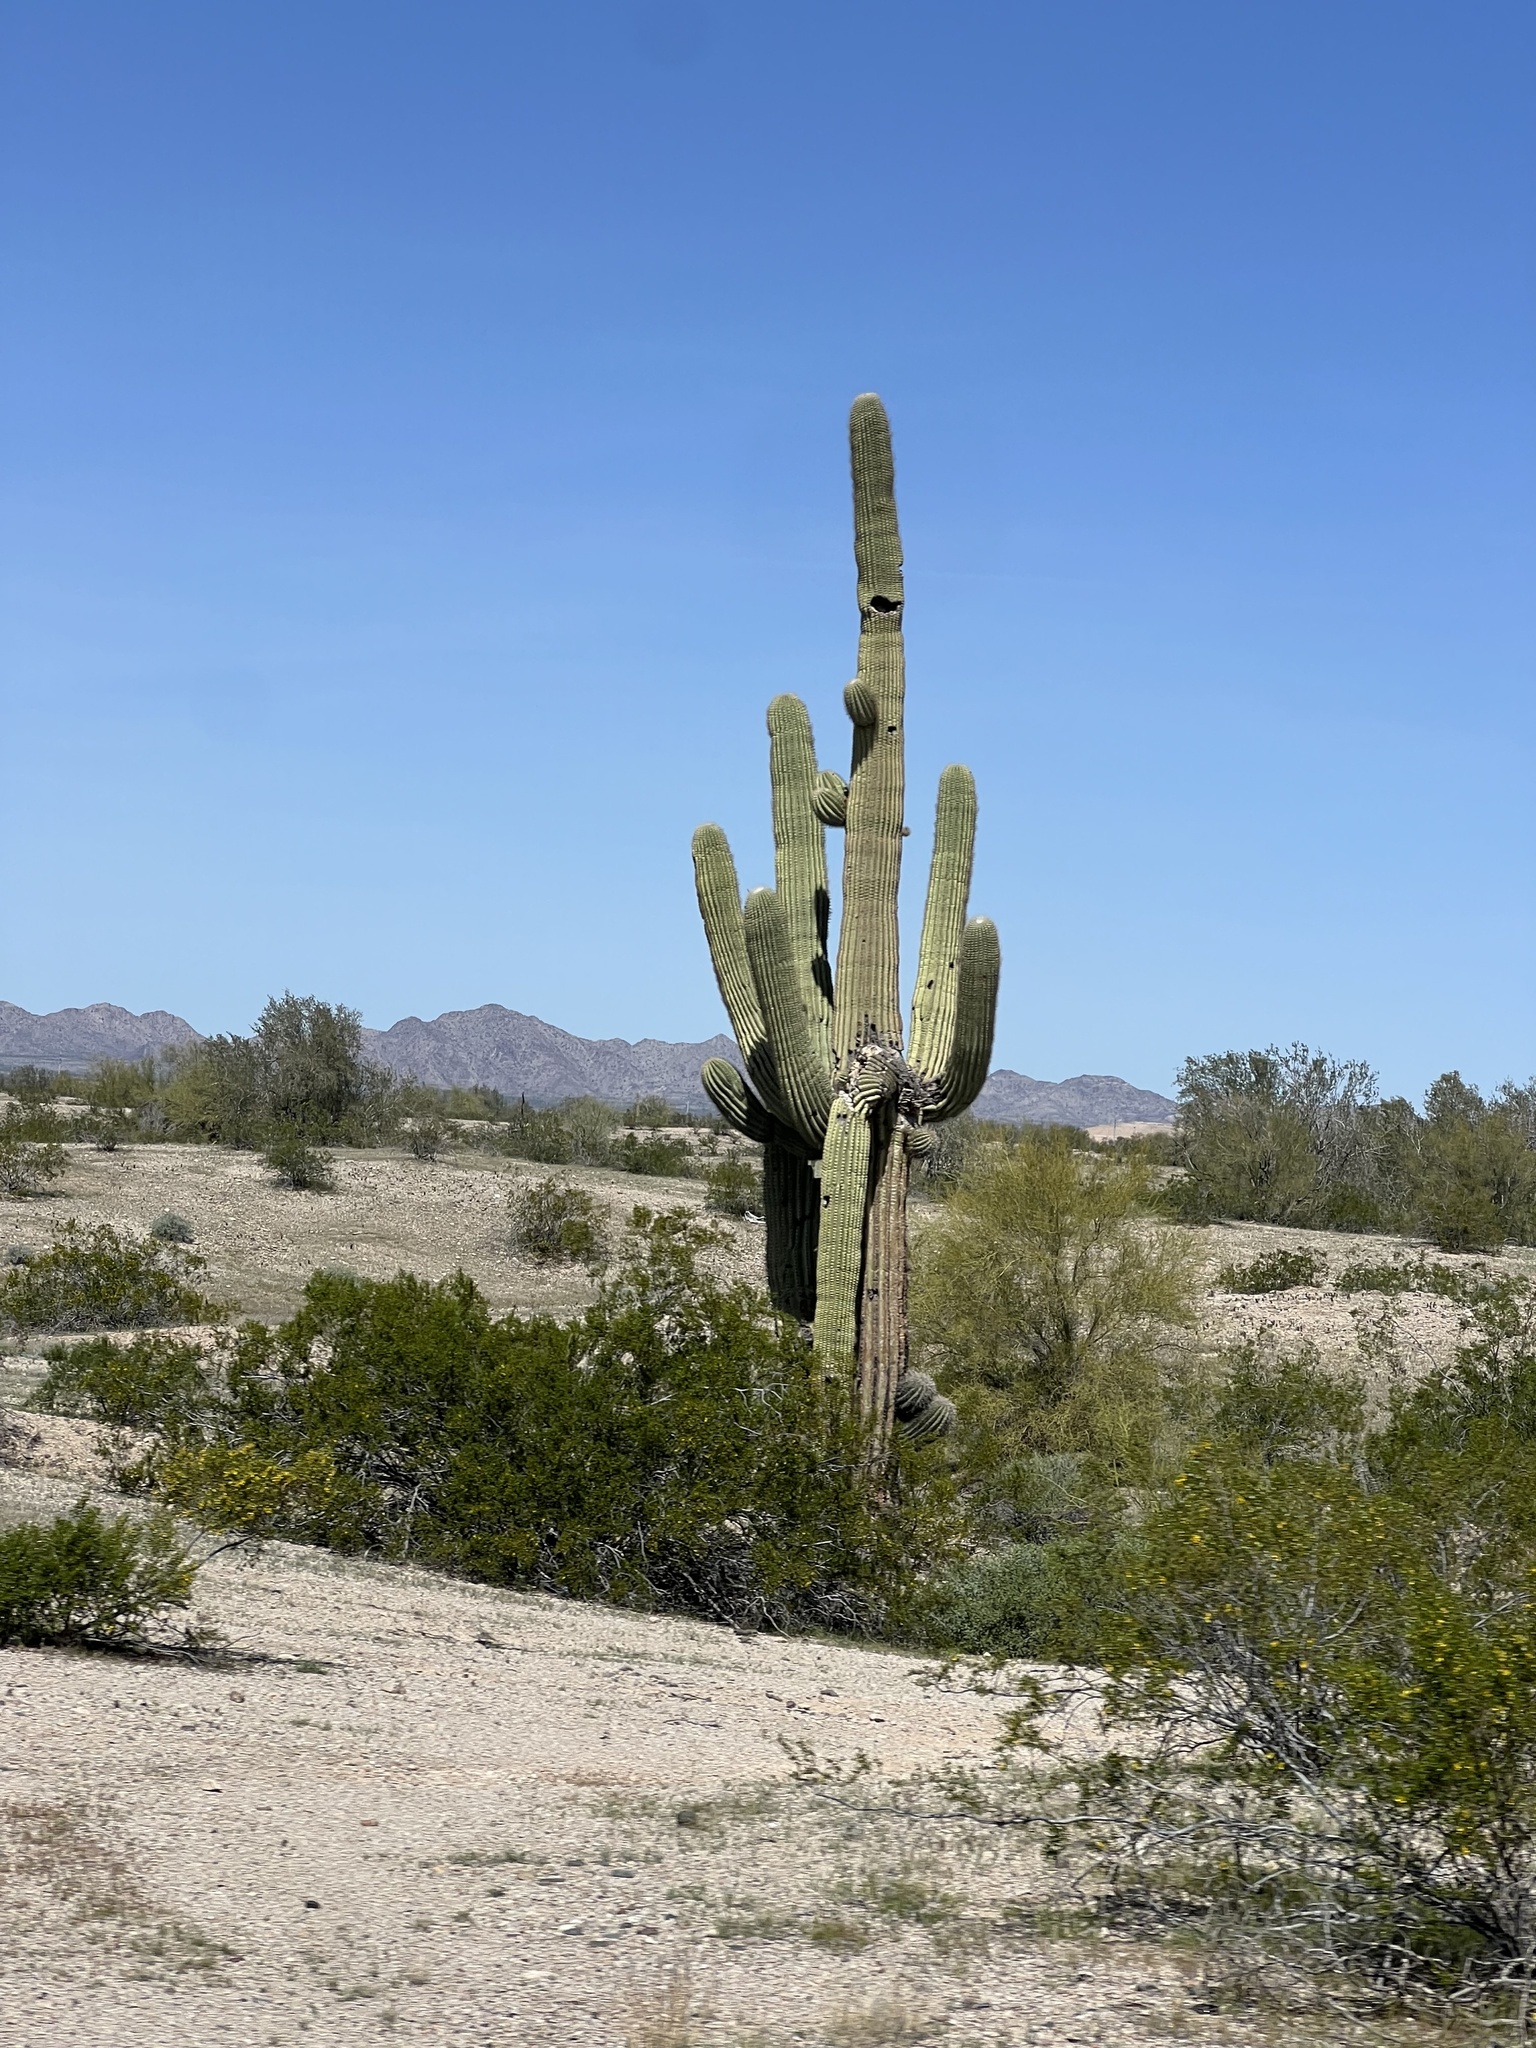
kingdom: Plantae
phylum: Tracheophyta
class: Magnoliopsida
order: Caryophyllales
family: Cactaceae
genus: Carnegiea
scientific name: Carnegiea gigantea
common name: Saguaro
